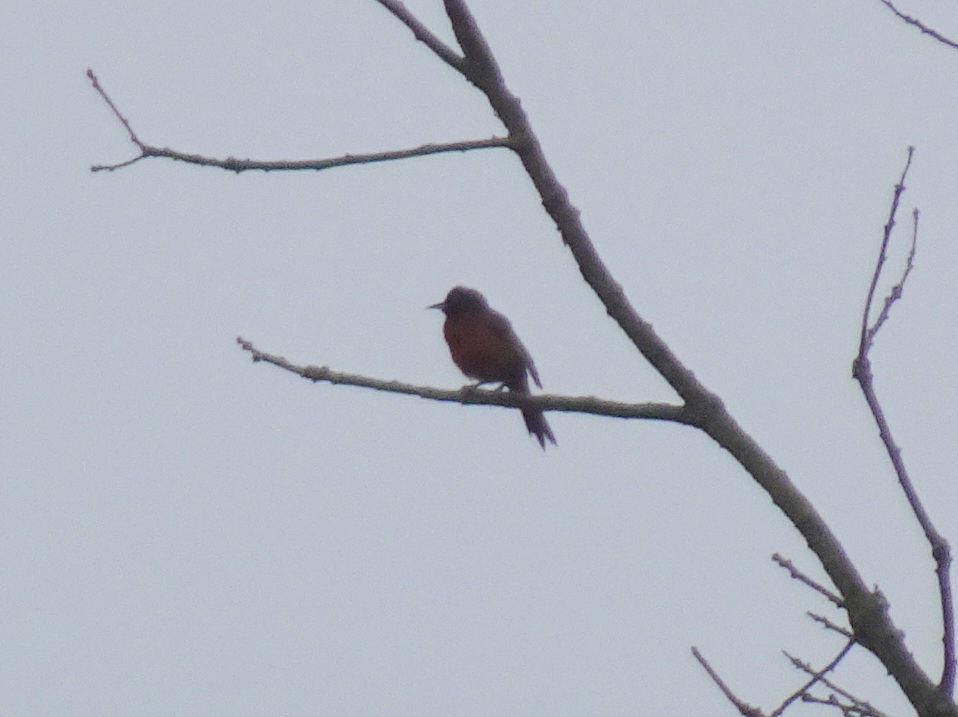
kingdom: Animalia
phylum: Chordata
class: Aves
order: Passeriformes
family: Icteridae
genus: Icterus
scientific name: Icterus spurius
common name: Orchard oriole
